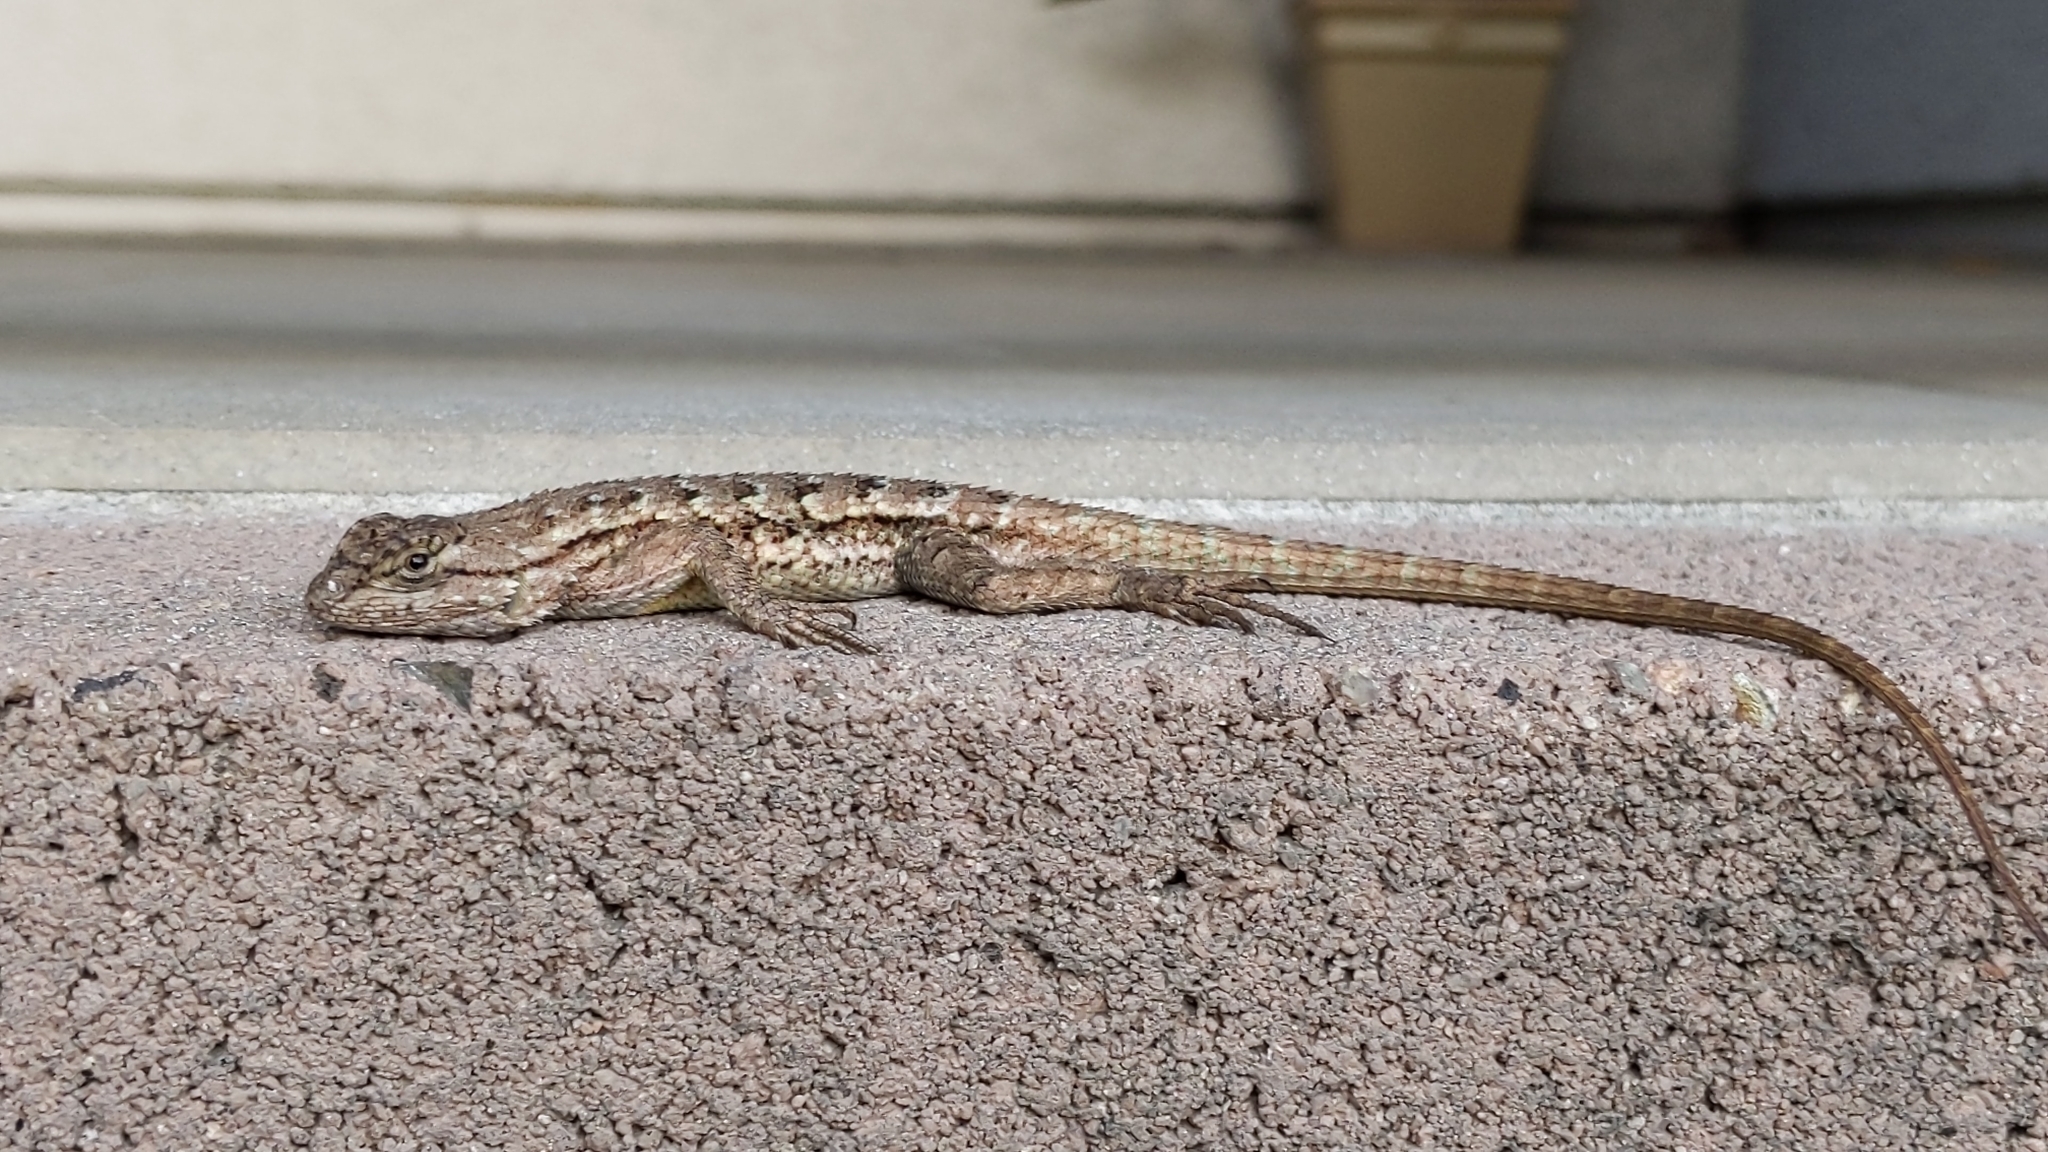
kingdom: Animalia
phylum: Chordata
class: Squamata
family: Phrynosomatidae
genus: Sceloporus
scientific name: Sceloporus occidentalis
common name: Western fence lizard
